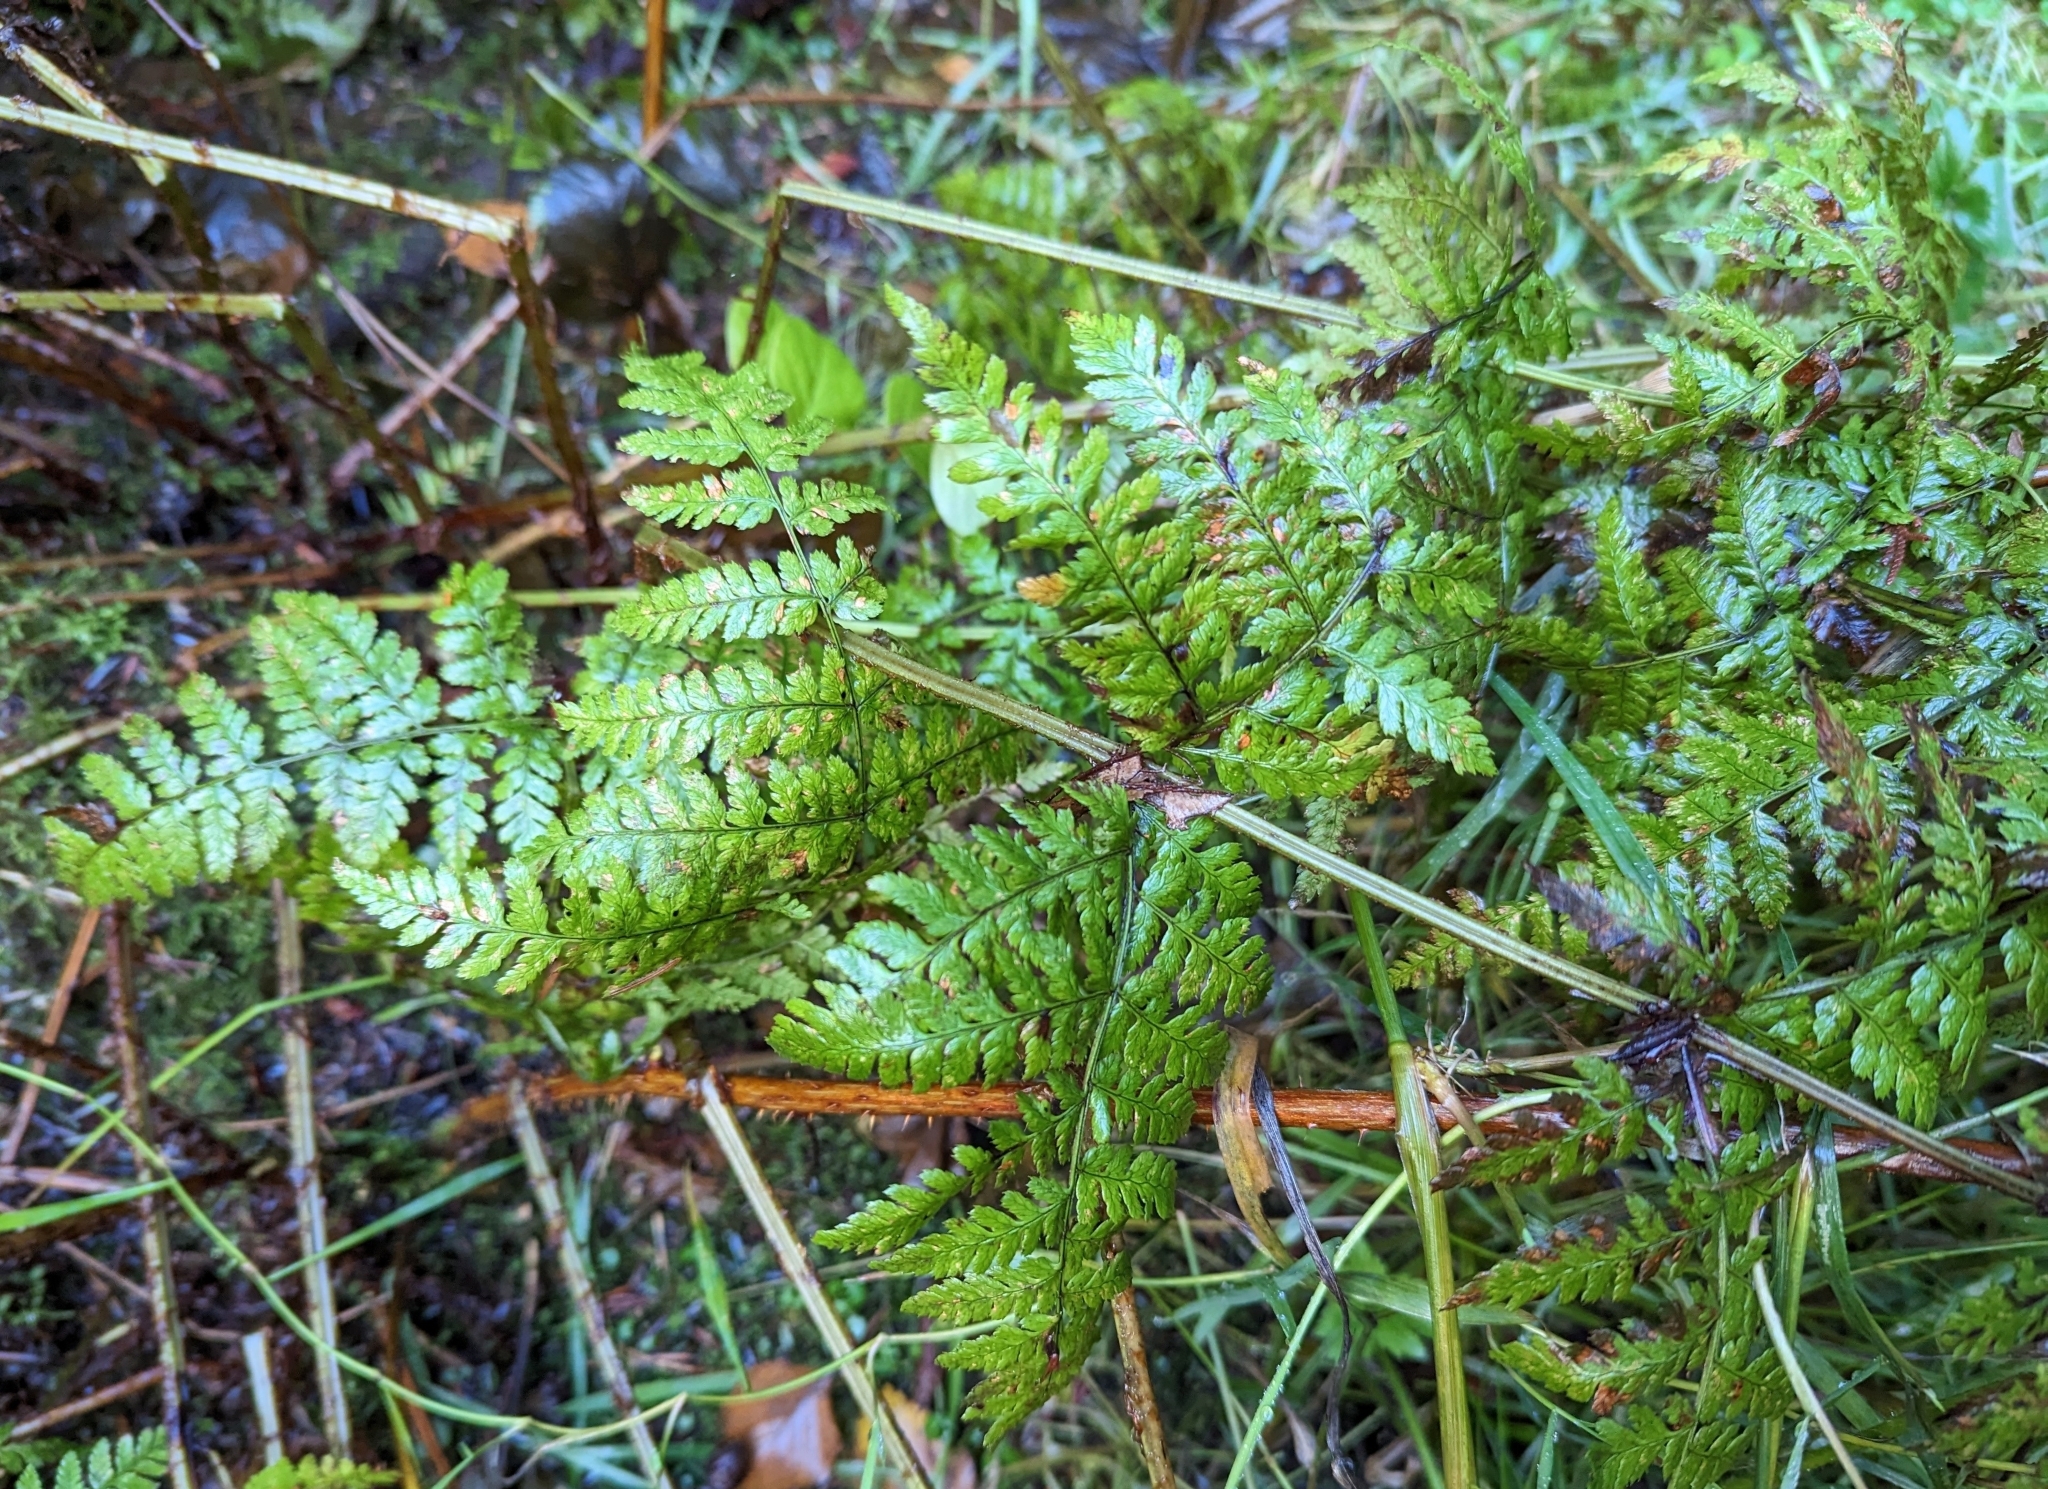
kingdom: Plantae
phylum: Tracheophyta
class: Polypodiopsida
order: Polypodiales
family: Dryopteridaceae
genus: Dryopteris
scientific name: Dryopteris expansa
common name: Northern buckler fern
